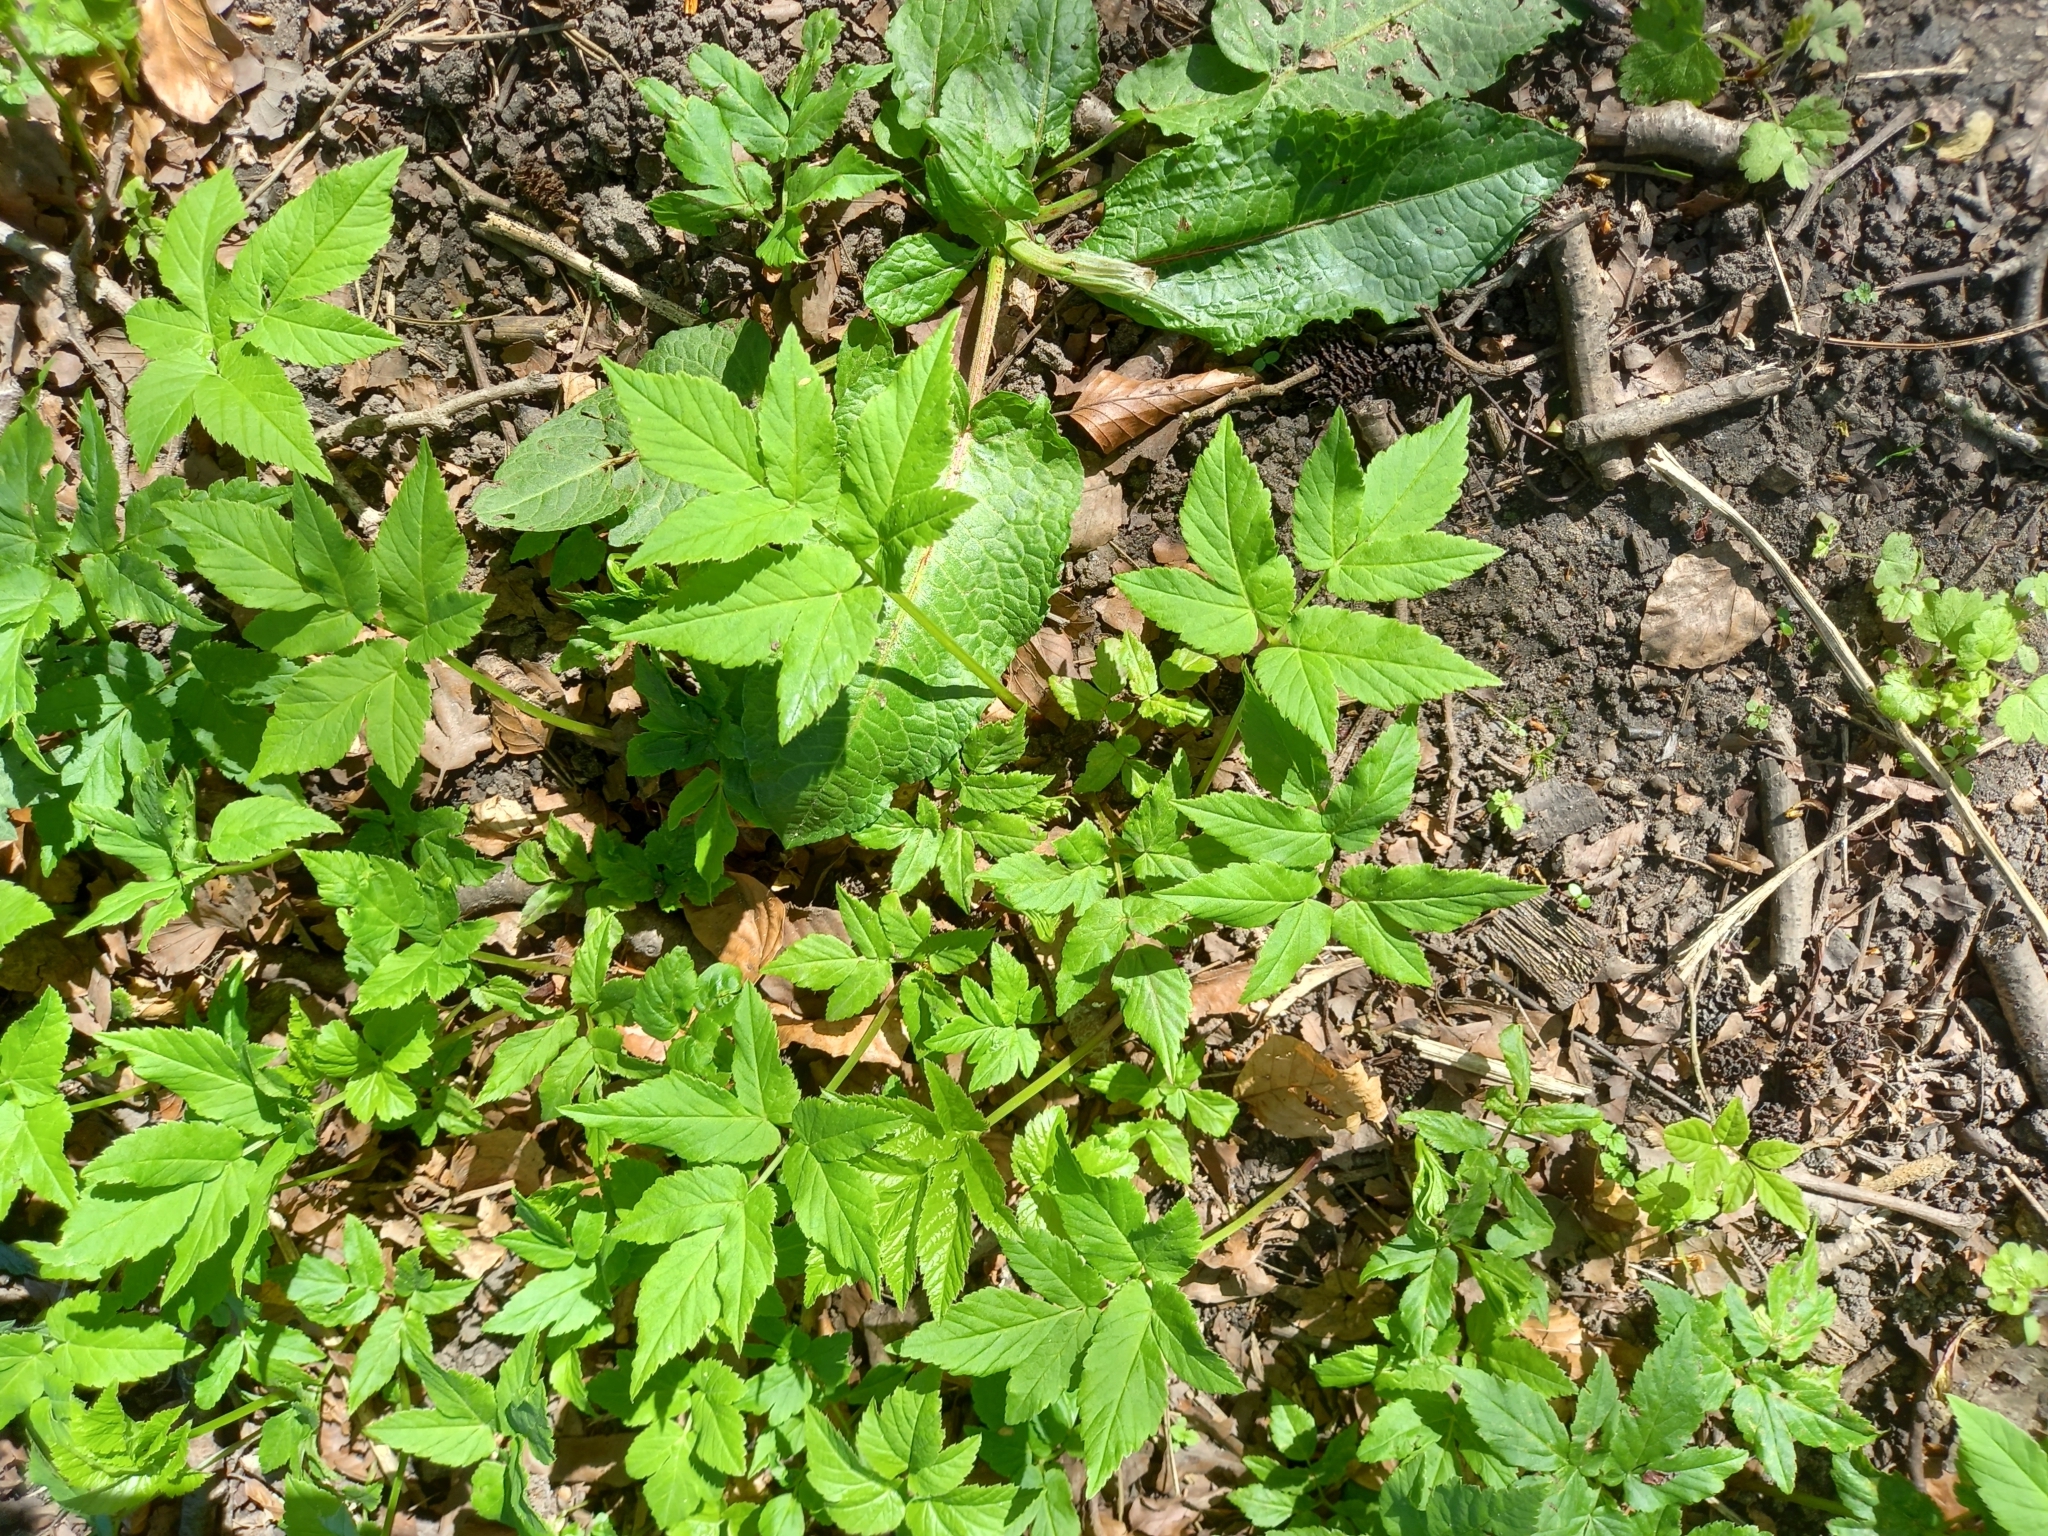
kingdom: Plantae
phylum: Tracheophyta
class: Magnoliopsida
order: Apiales
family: Apiaceae
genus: Aegopodium
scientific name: Aegopodium podagraria
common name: Ground-elder
